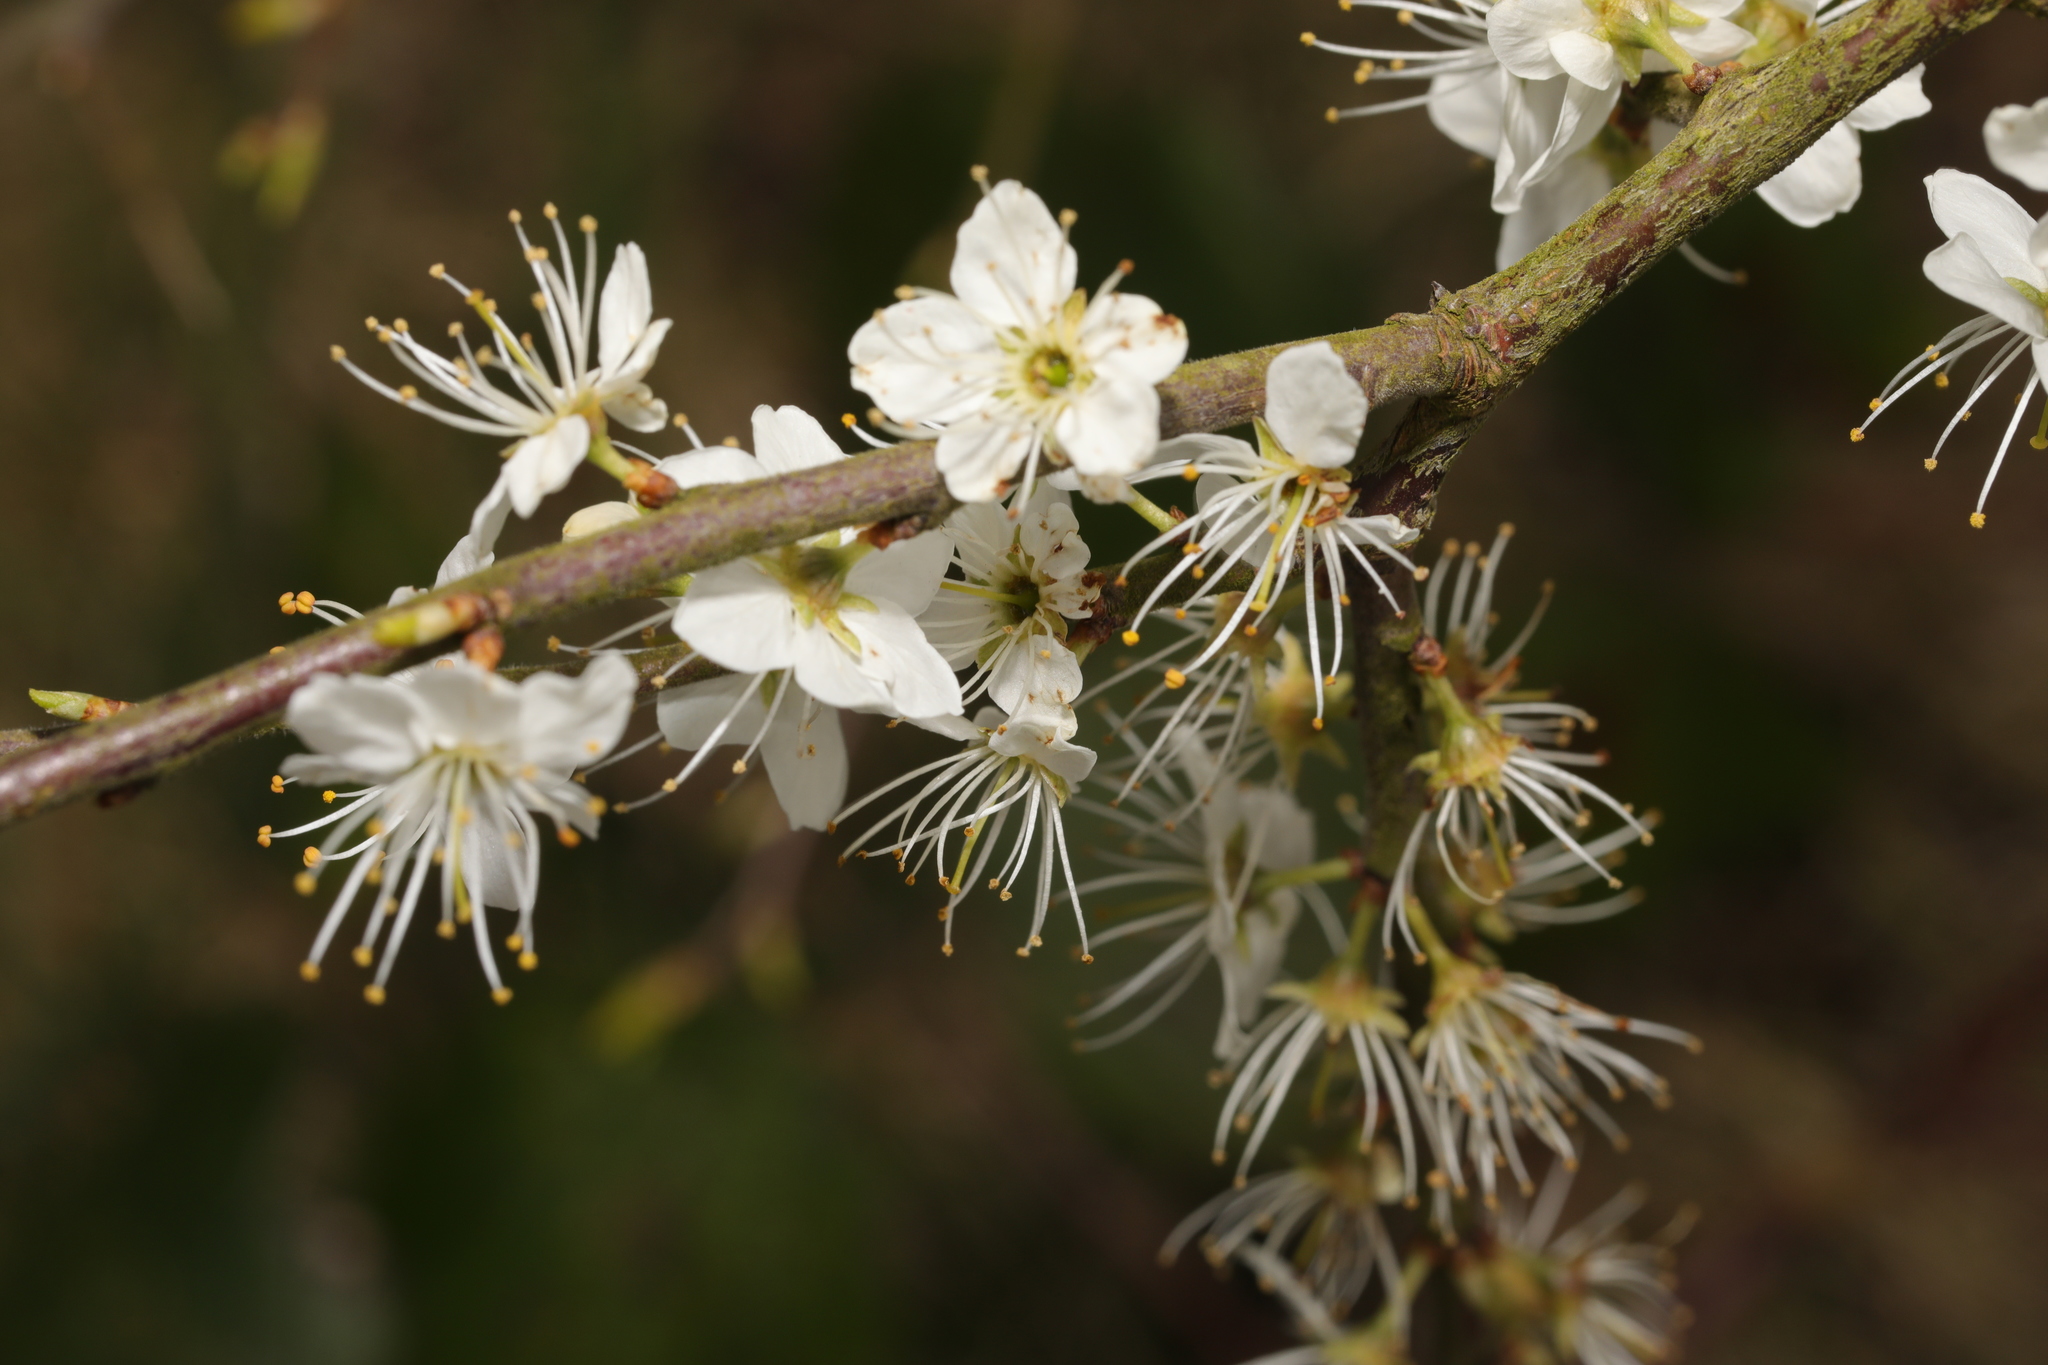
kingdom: Plantae
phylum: Tracheophyta
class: Magnoliopsida
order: Rosales
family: Rosaceae
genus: Prunus
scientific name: Prunus spinosa
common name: Blackthorn
